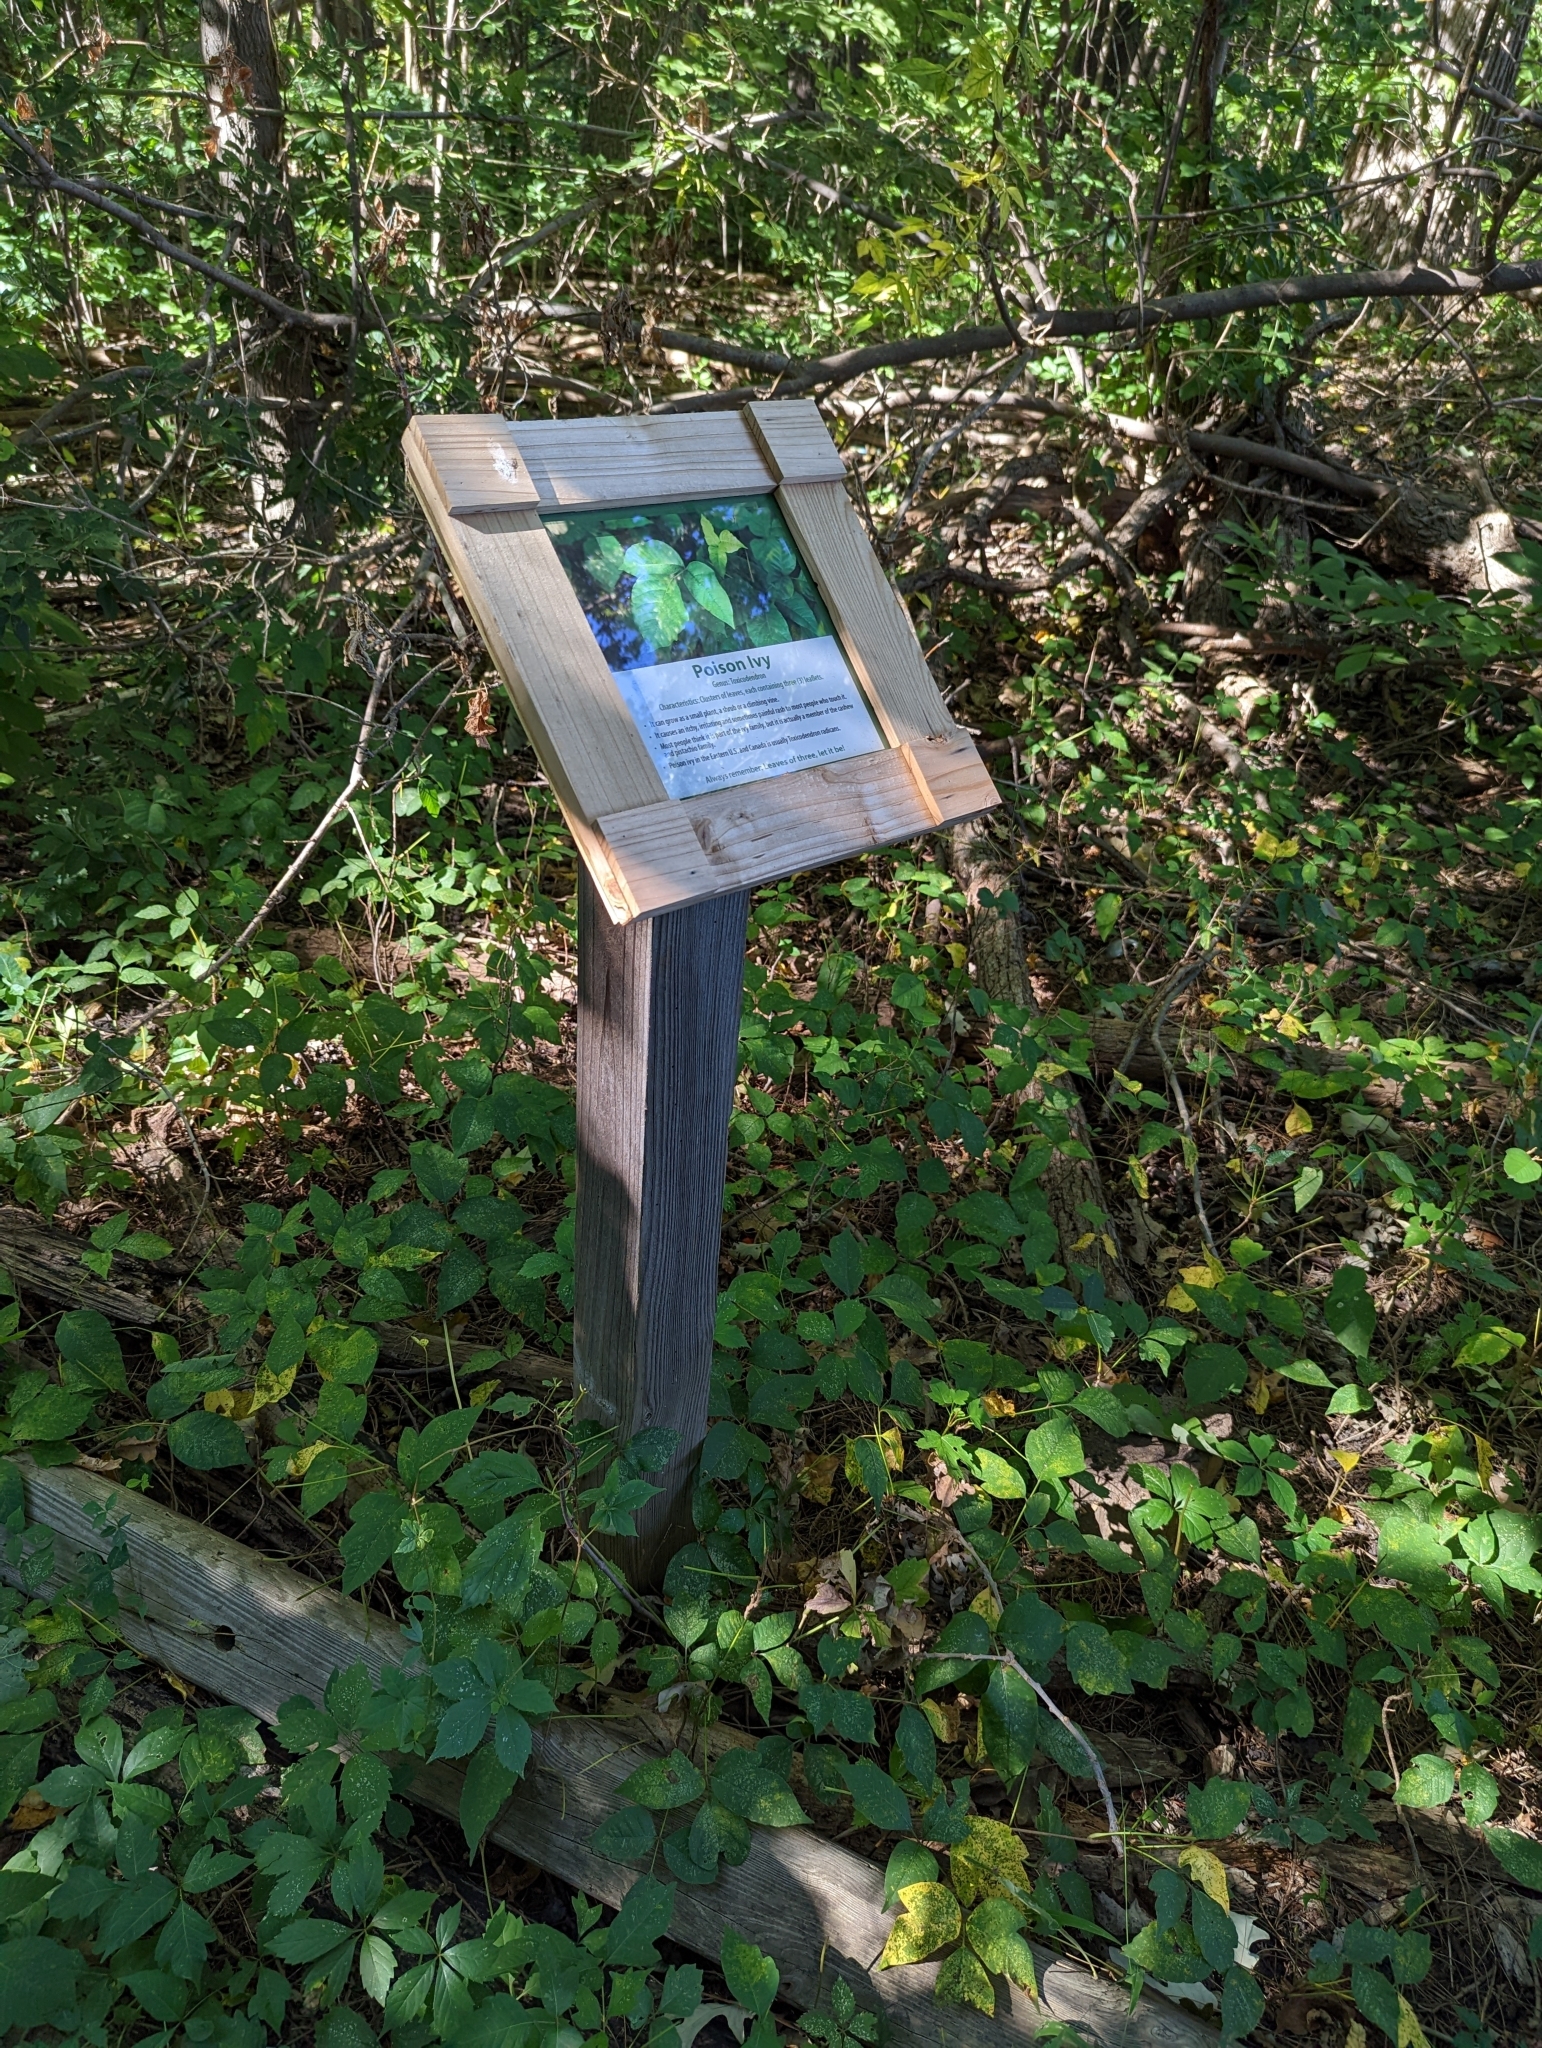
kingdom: Plantae
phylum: Tracheophyta
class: Magnoliopsida
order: Sapindales
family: Anacardiaceae
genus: Toxicodendron
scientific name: Toxicodendron radicans
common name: Poison ivy
